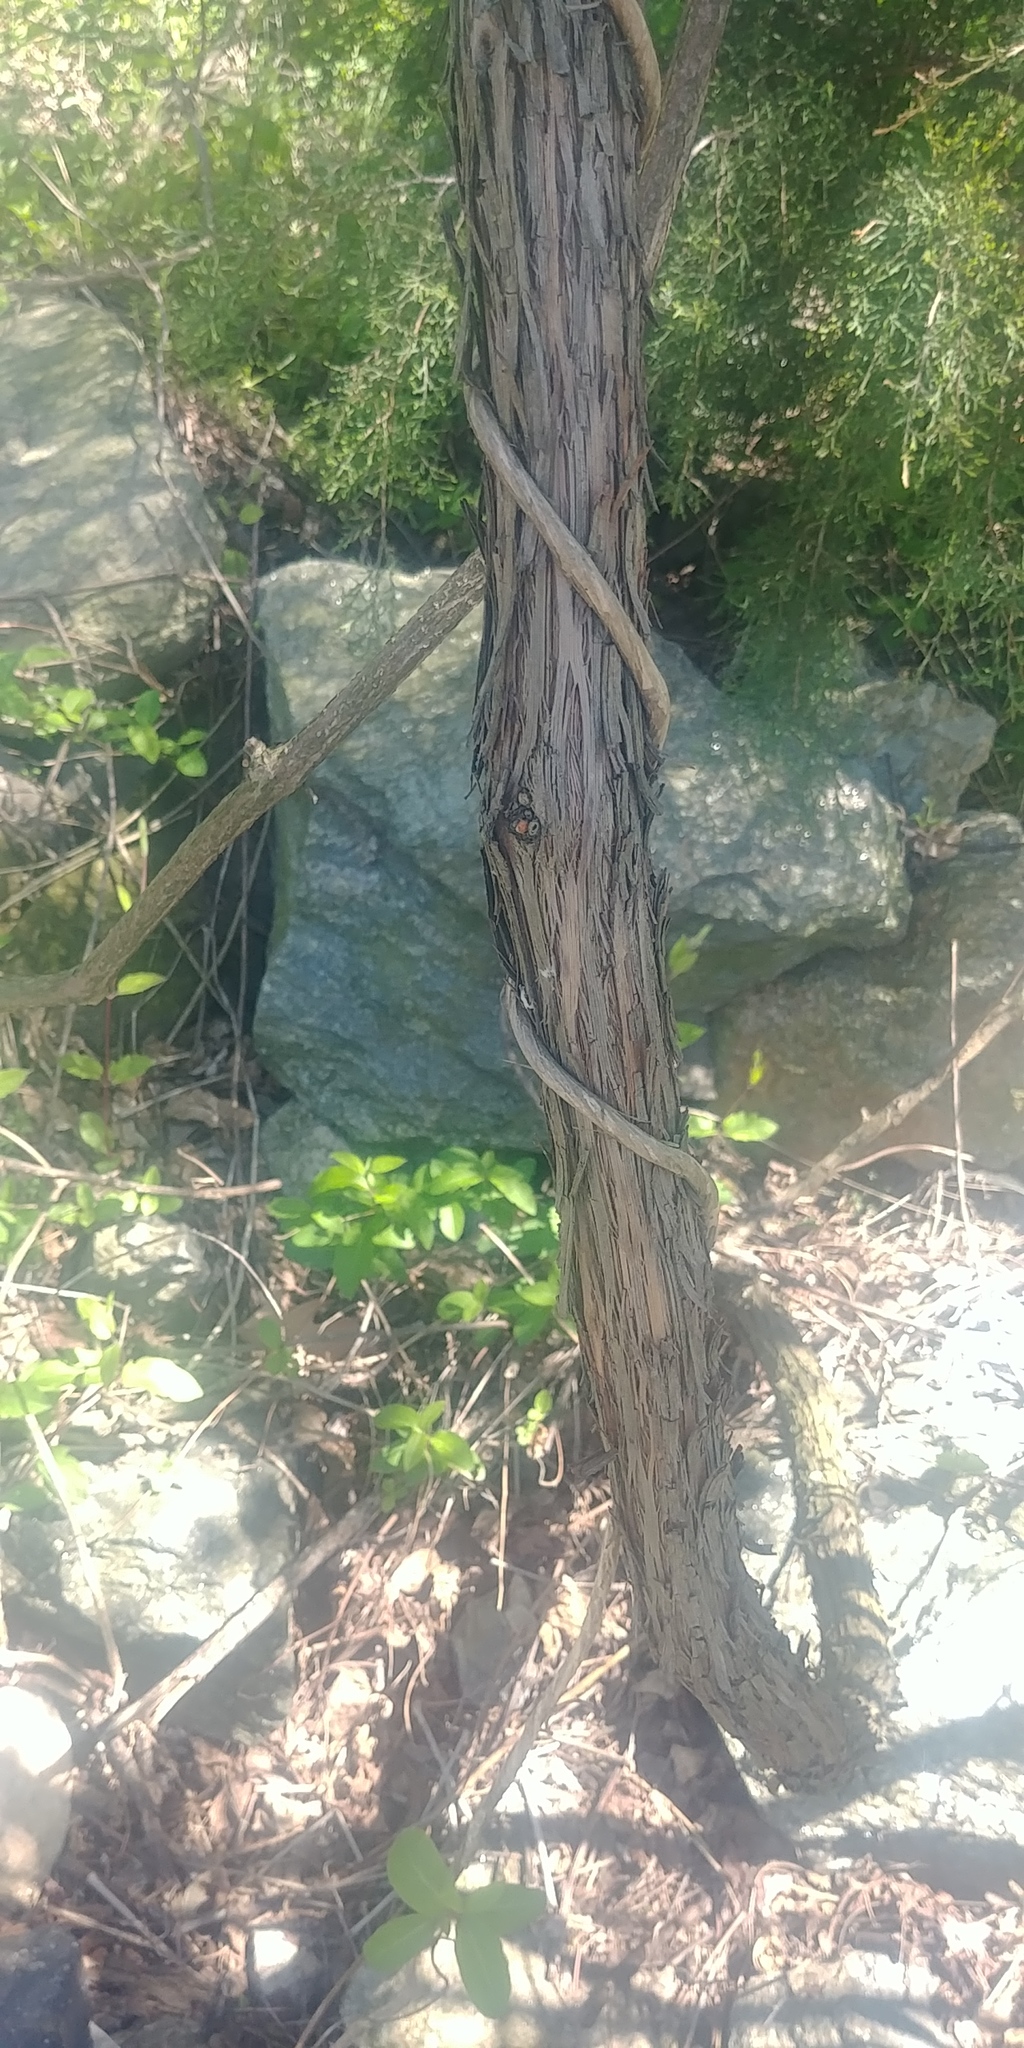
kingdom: Plantae
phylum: Tracheophyta
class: Magnoliopsida
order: Vitales
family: Vitaceae
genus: Vitis
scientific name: Vitis
